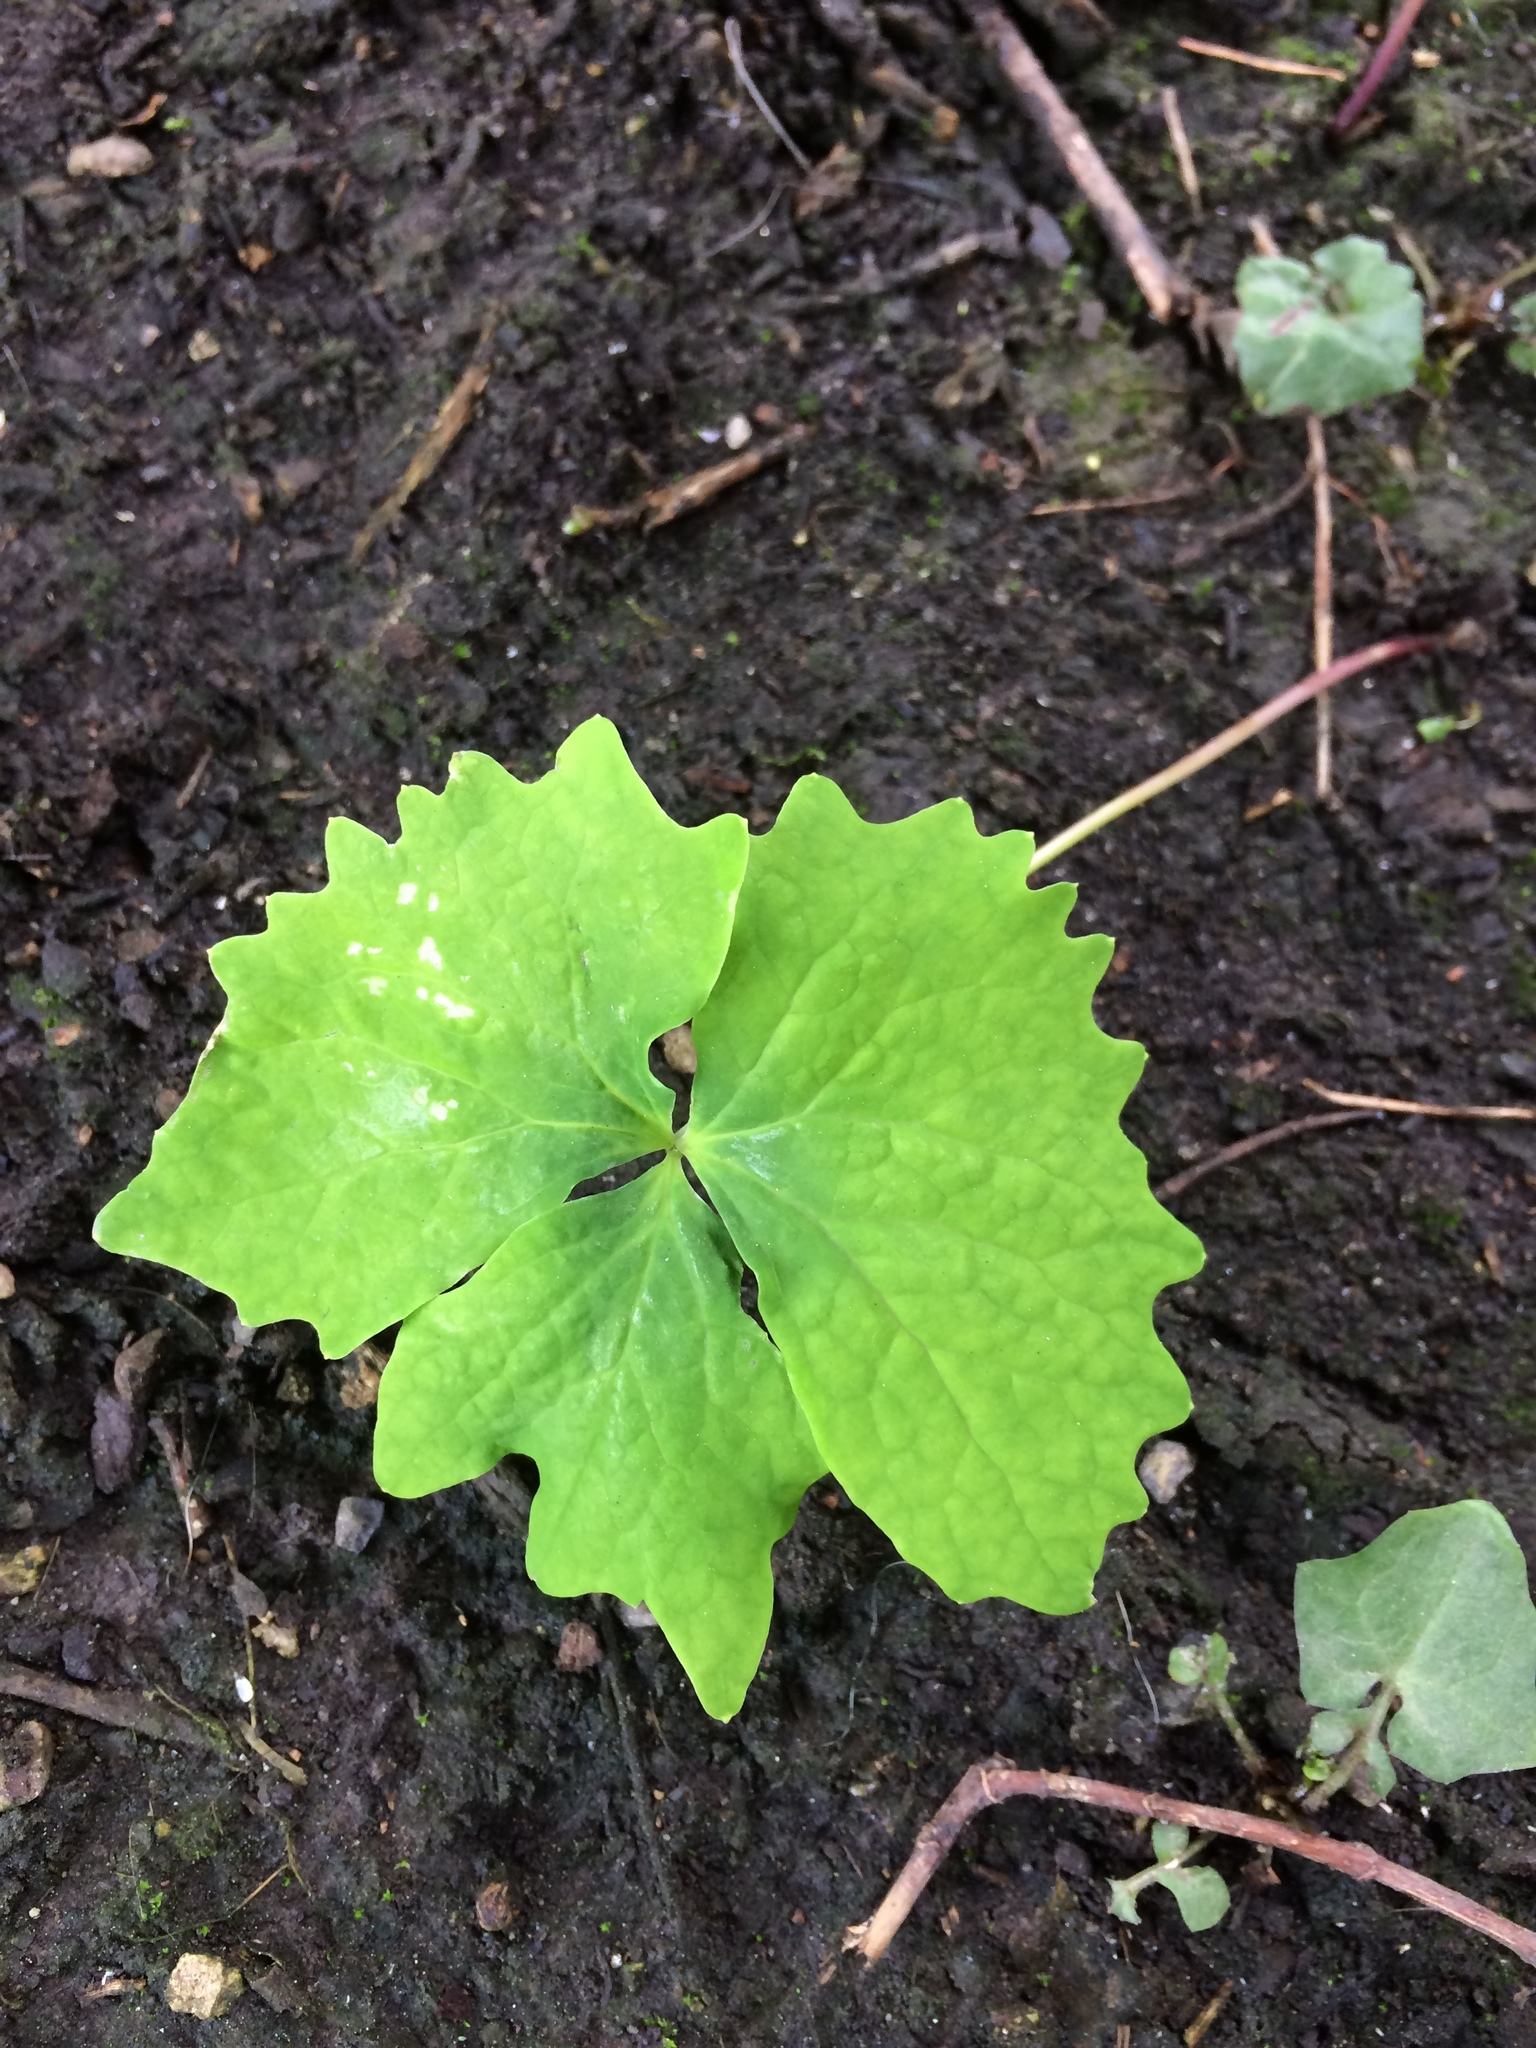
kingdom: Plantae
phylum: Tracheophyta
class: Magnoliopsida
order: Ranunculales
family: Berberidaceae
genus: Achlys
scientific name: Achlys triphylla
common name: Vanilla-leaf
